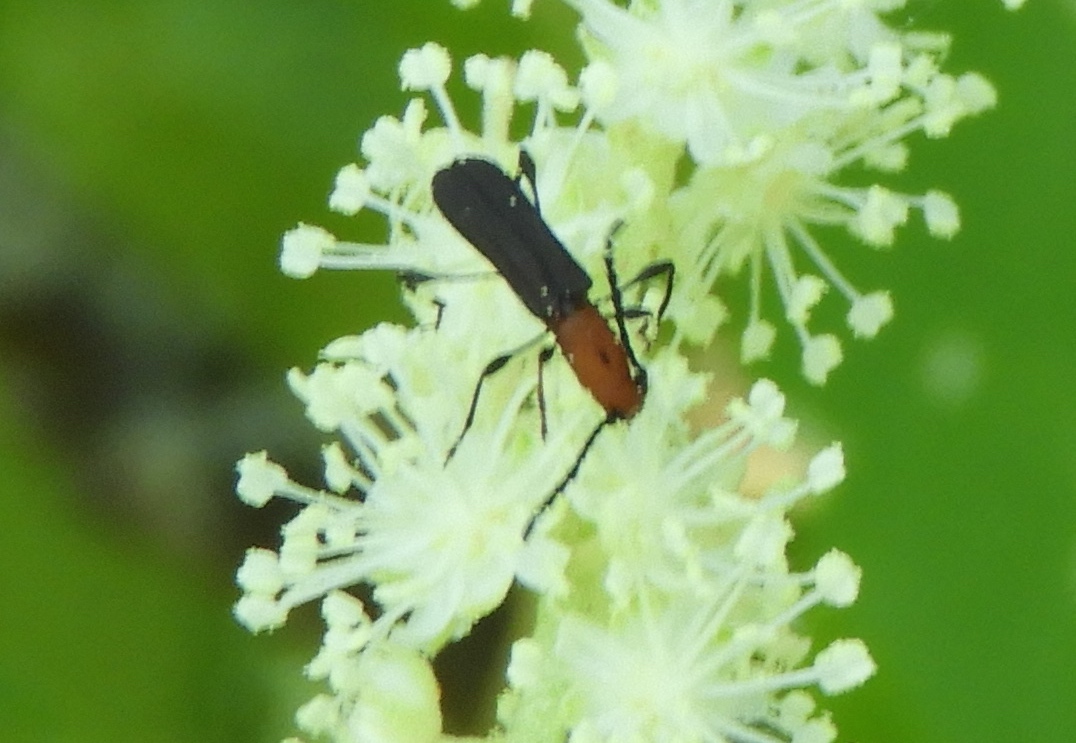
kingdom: Animalia
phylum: Arthropoda
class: Insecta
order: Coleoptera
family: Cerambycidae
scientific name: Cerambycidae
